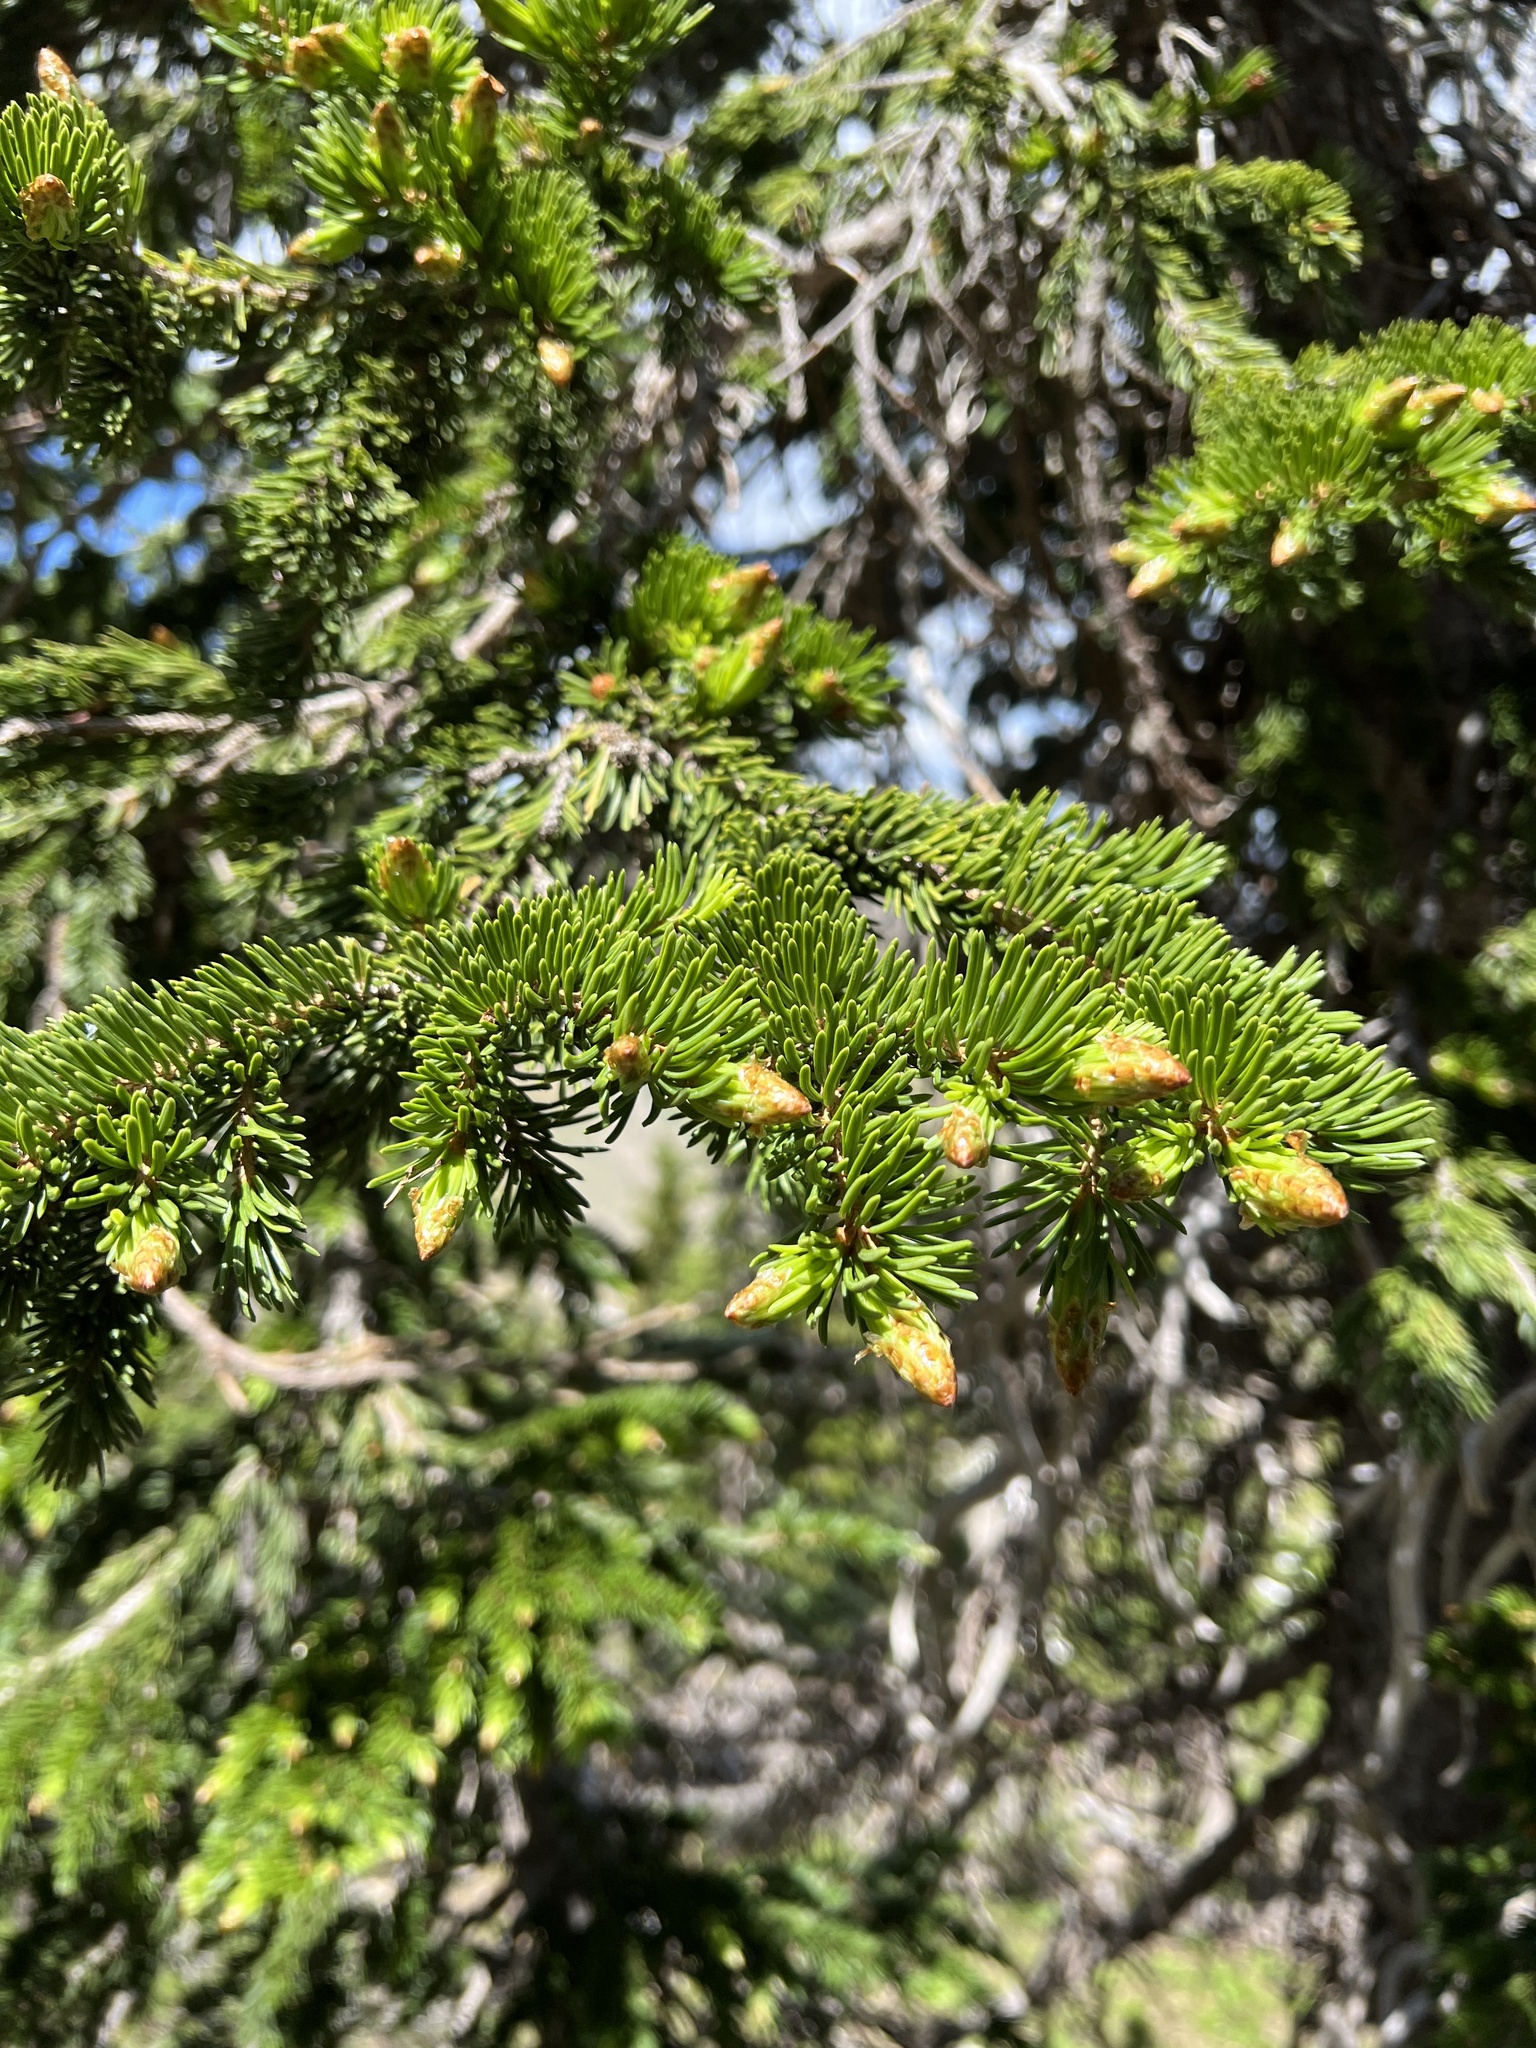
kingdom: Plantae
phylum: Tracheophyta
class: Pinopsida
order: Pinales
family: Pinaceae
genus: Picea
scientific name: Picea engelmannii
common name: Engelmann spruce
